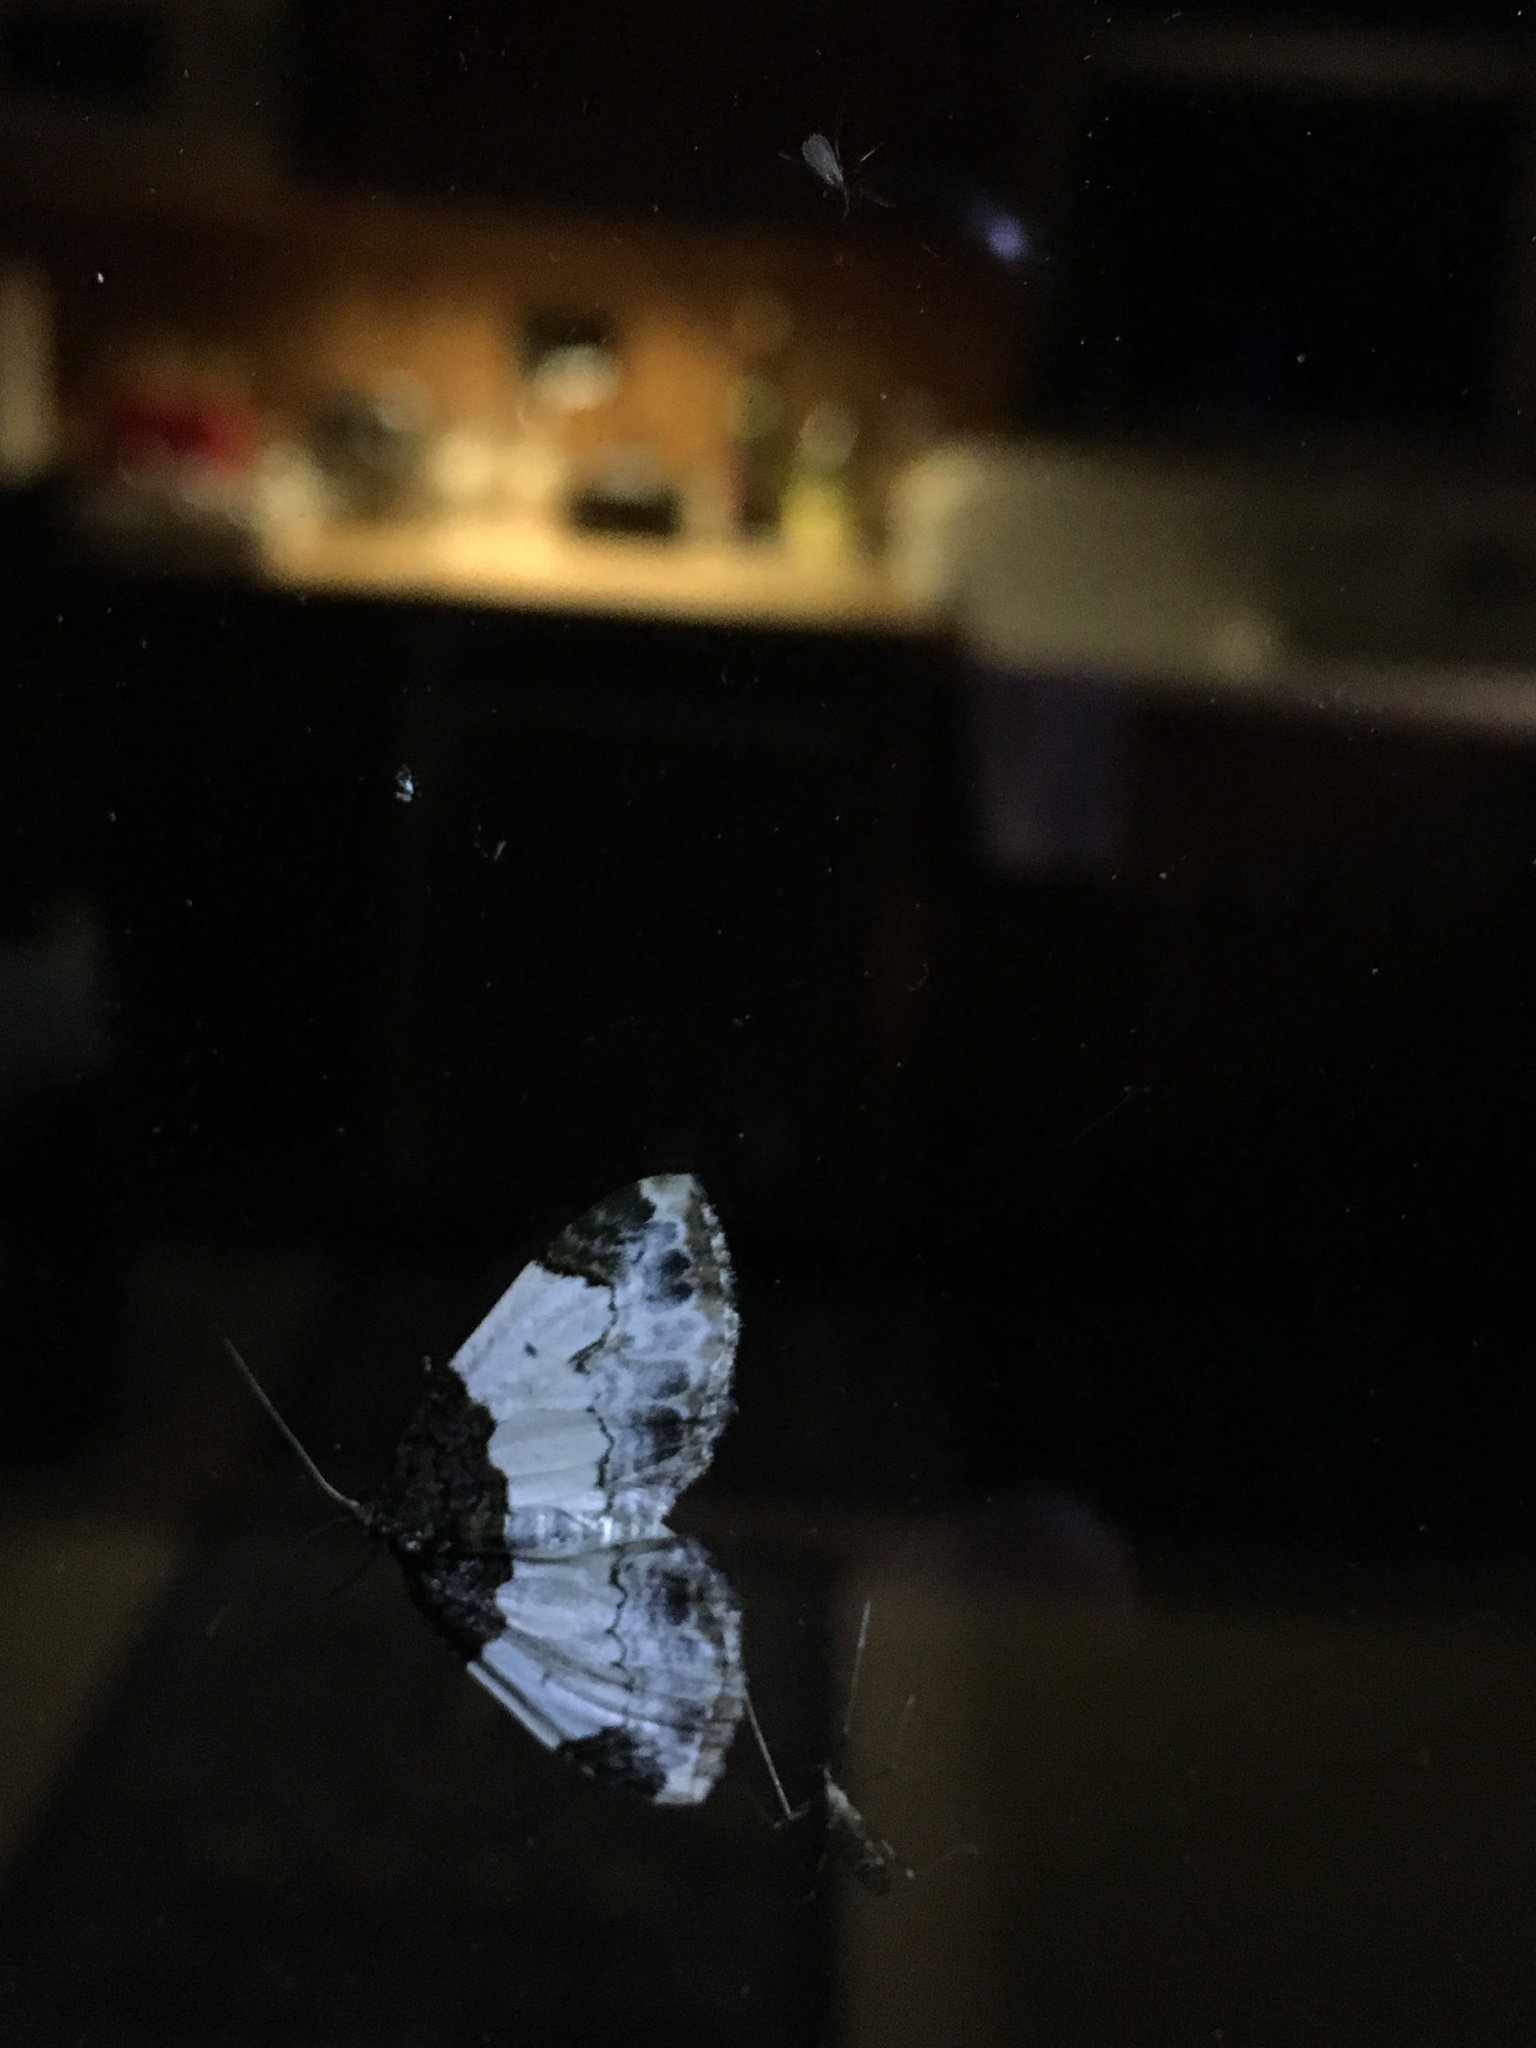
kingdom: Animalia
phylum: Arthropoda
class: Insecta
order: Lepidoptera
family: Geometridae
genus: Mesoleuca
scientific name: Mesoleuca ruficillata
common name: White-ribboned carpet moth
